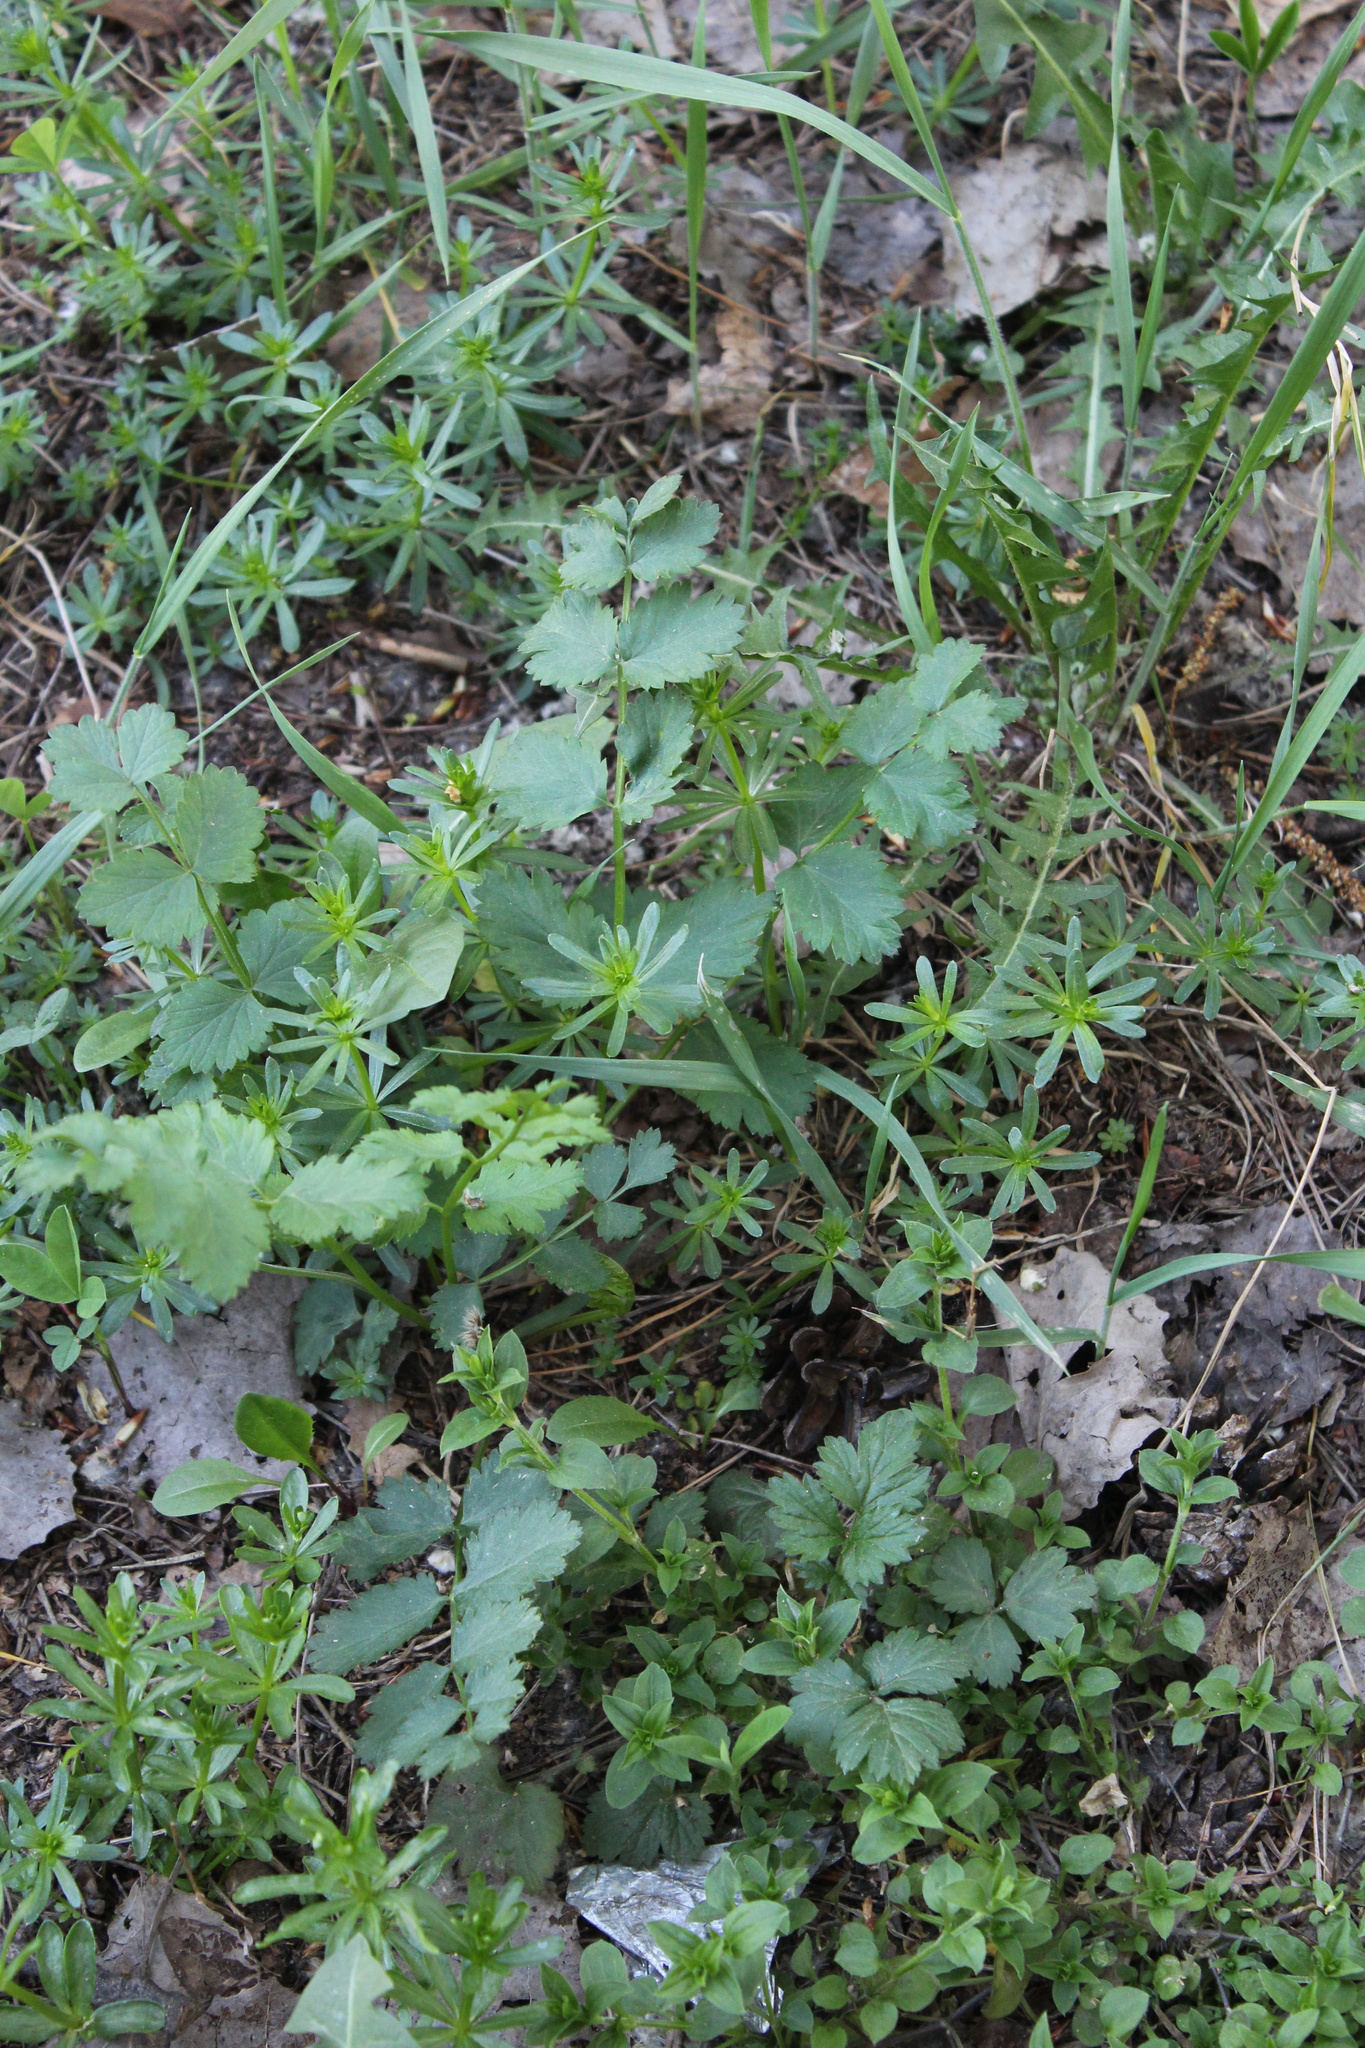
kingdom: Plantae
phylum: Tracheophyta
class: Magnoliopsida
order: Apiales
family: Apiaceae
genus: Pimpinella
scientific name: Pimpinella saxifraga
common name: Burnet-saxifrage
